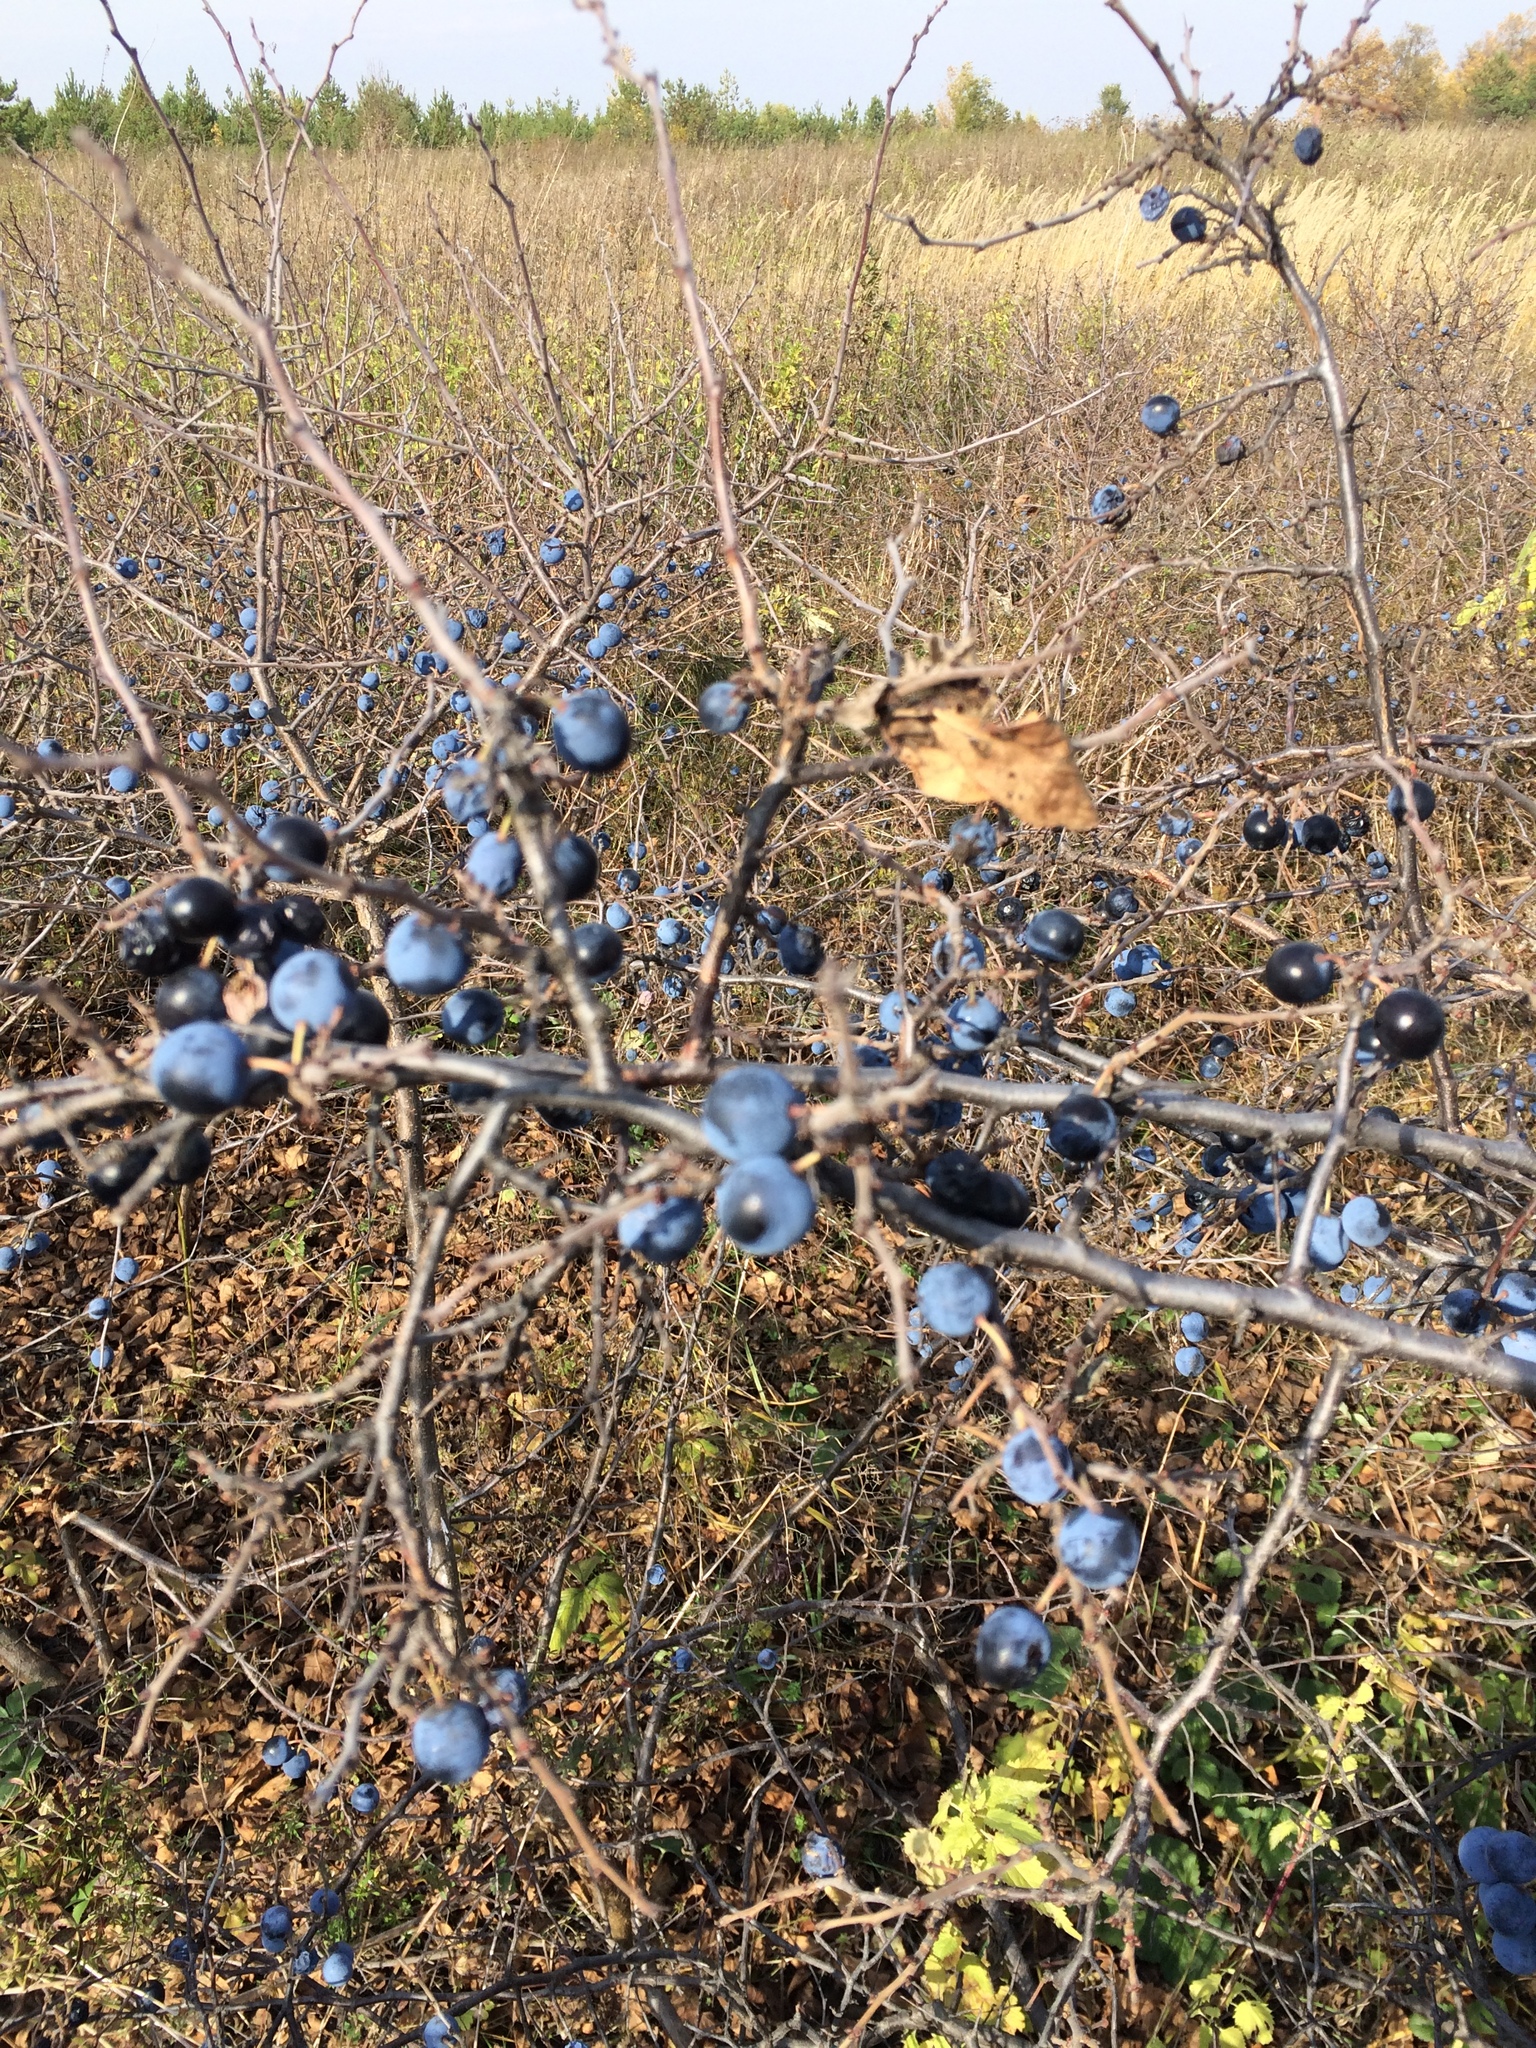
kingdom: Plantae
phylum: Tracheophyta
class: Magnoliopsida
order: Rosales
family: Rosaceae
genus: Prunus
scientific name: Prunus spinosa
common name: Blackthorn
